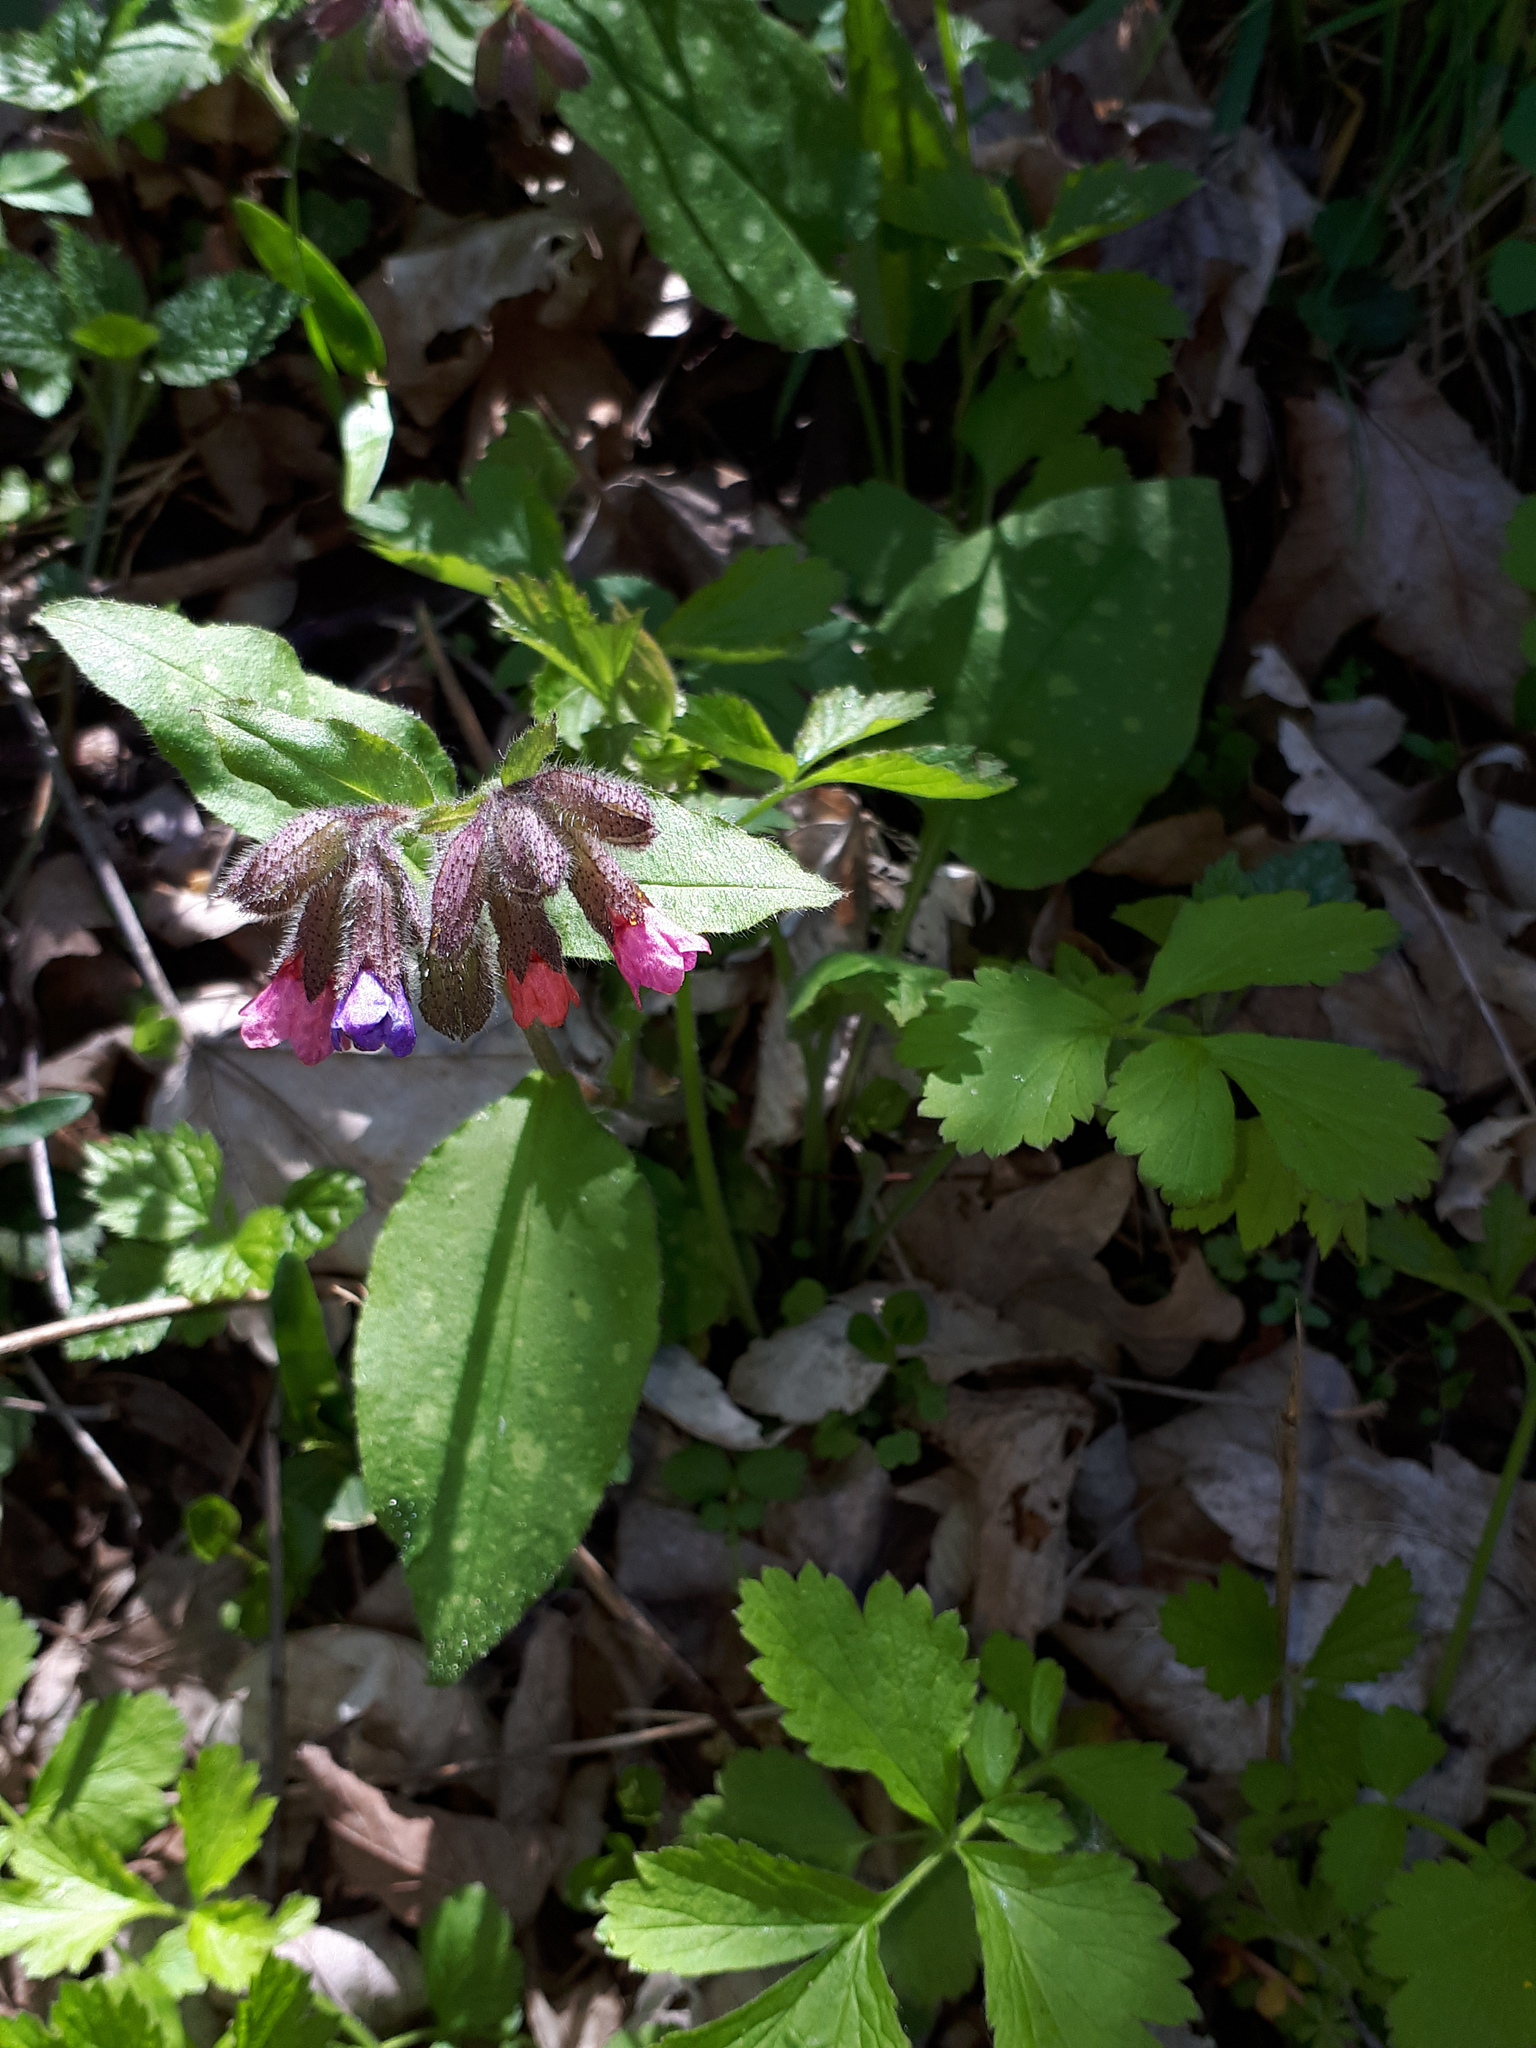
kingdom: Plantae
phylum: Tracheophyta
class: Magnoliopsida
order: Boraginales
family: Boraginaceae
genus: Pulmonaria
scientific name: Pulmonaria officinalis
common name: Lungwort
